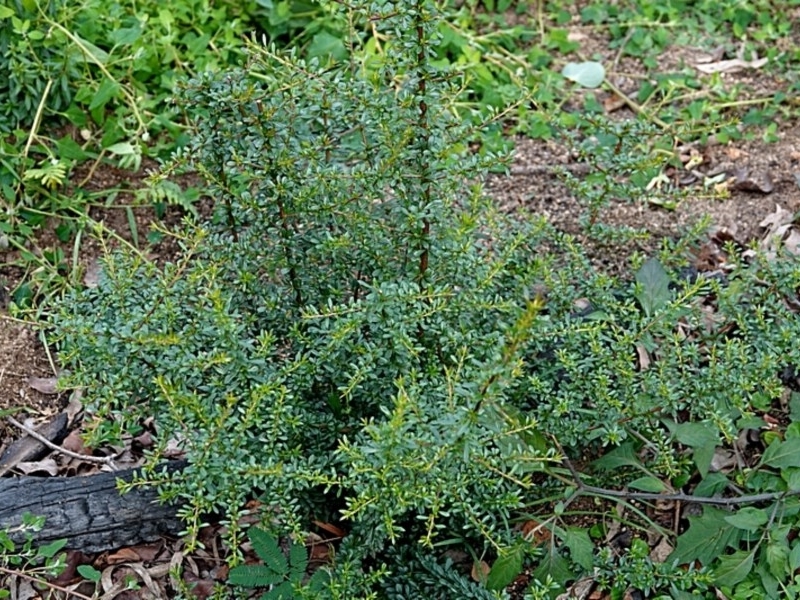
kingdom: Plantae
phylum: Tracheophyta
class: Magnoliopsida
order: Apiales
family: Pittosporaceae
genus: Bursaria
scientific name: Bursaria spinosa
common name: Australian blackthorn
